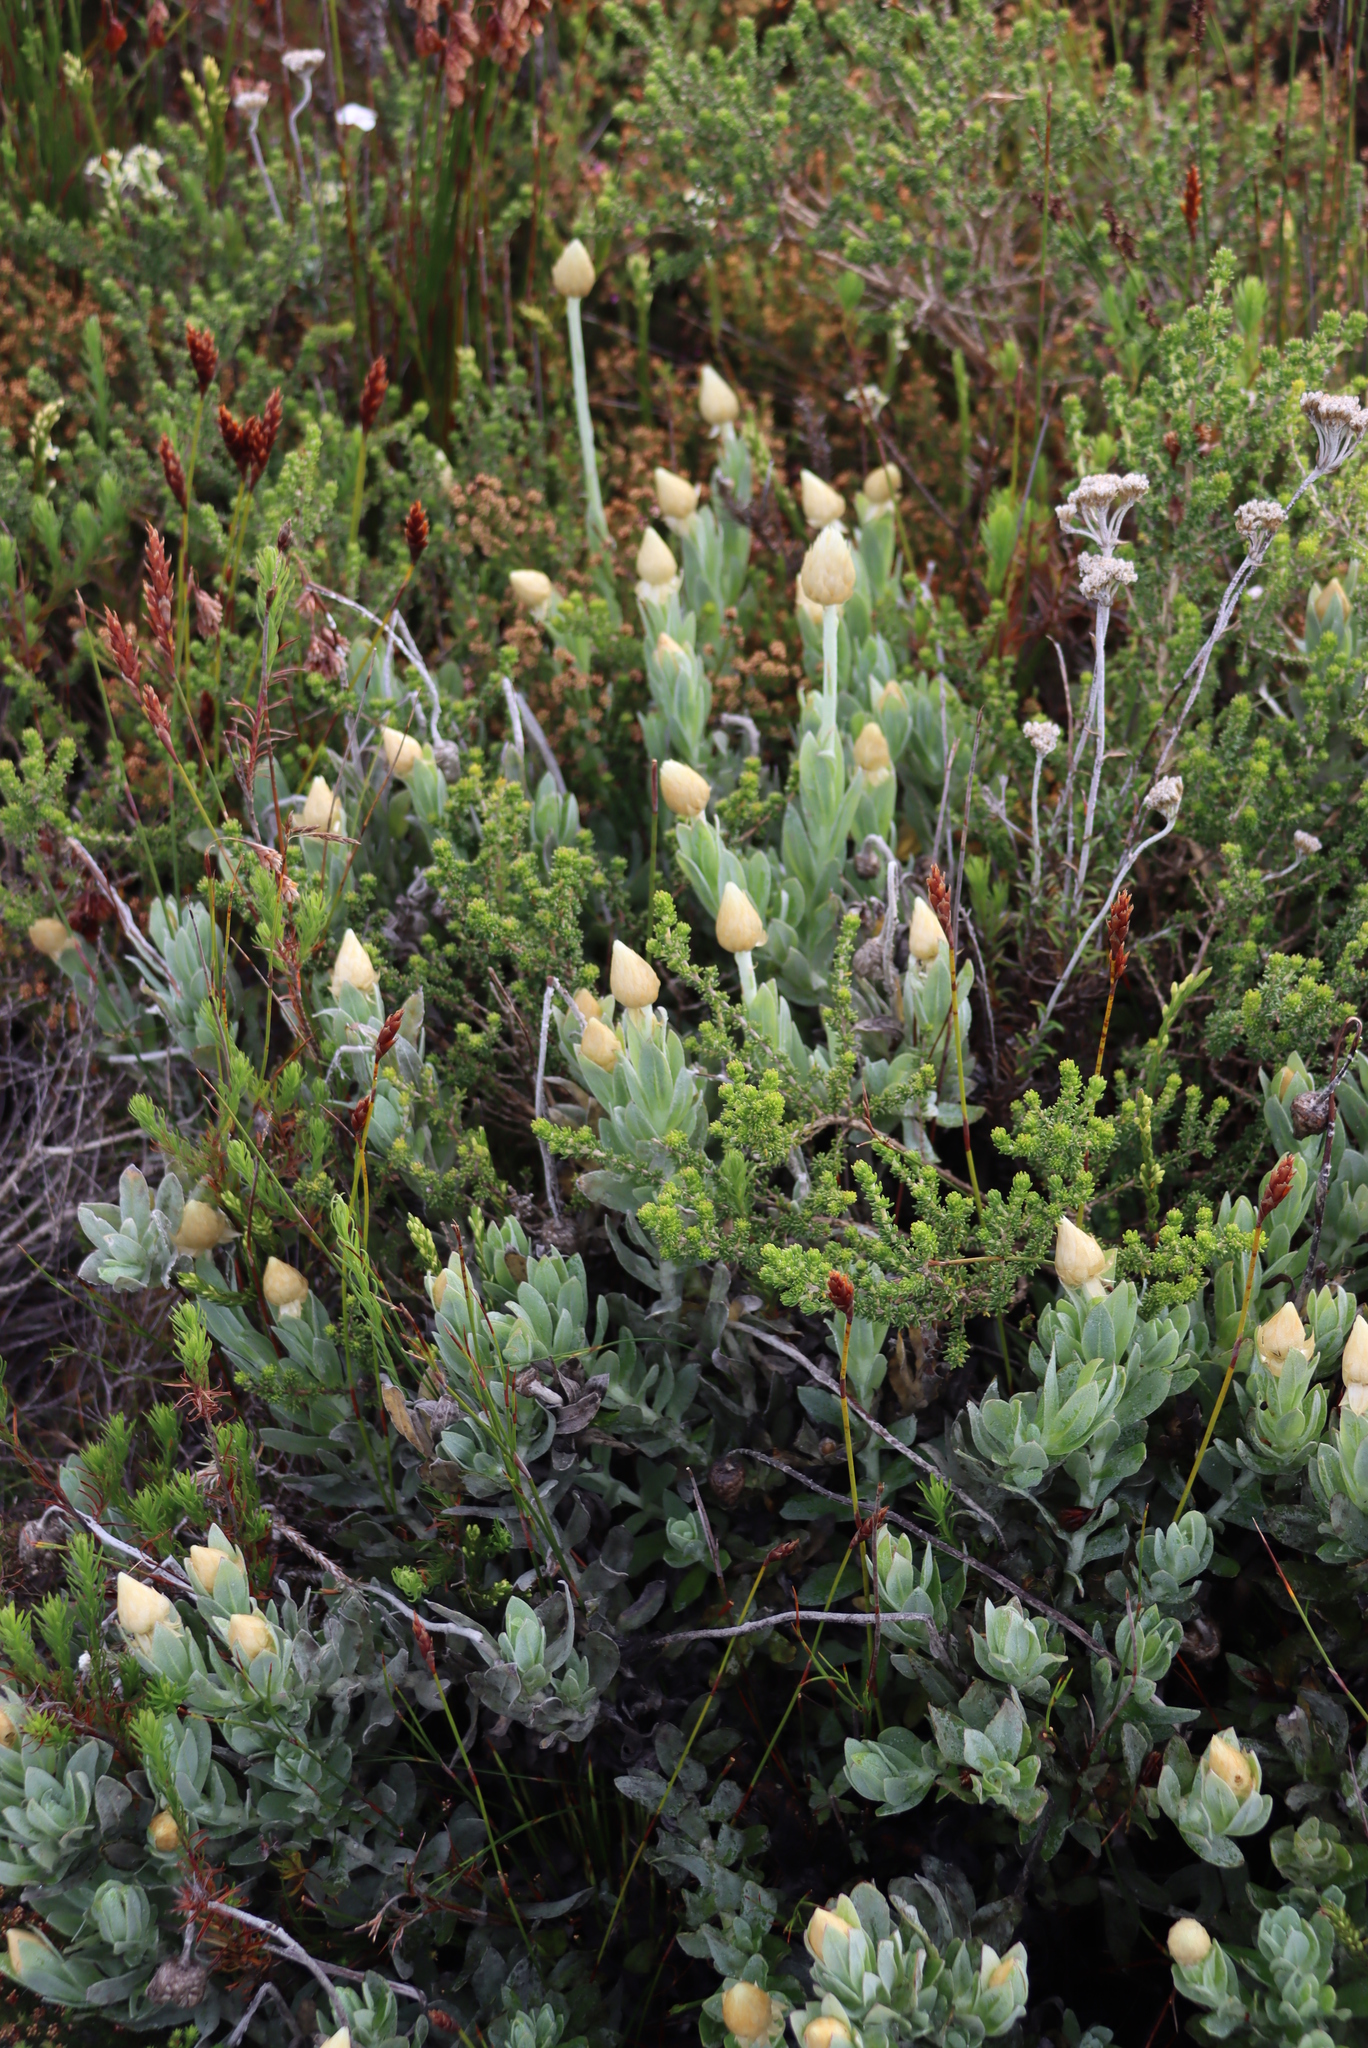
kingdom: Plantae
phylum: Tracheophyta
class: Magnoliopsida
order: Asterales
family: Asteraceae
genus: Syncarpha
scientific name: Syncarpha speciosissima
